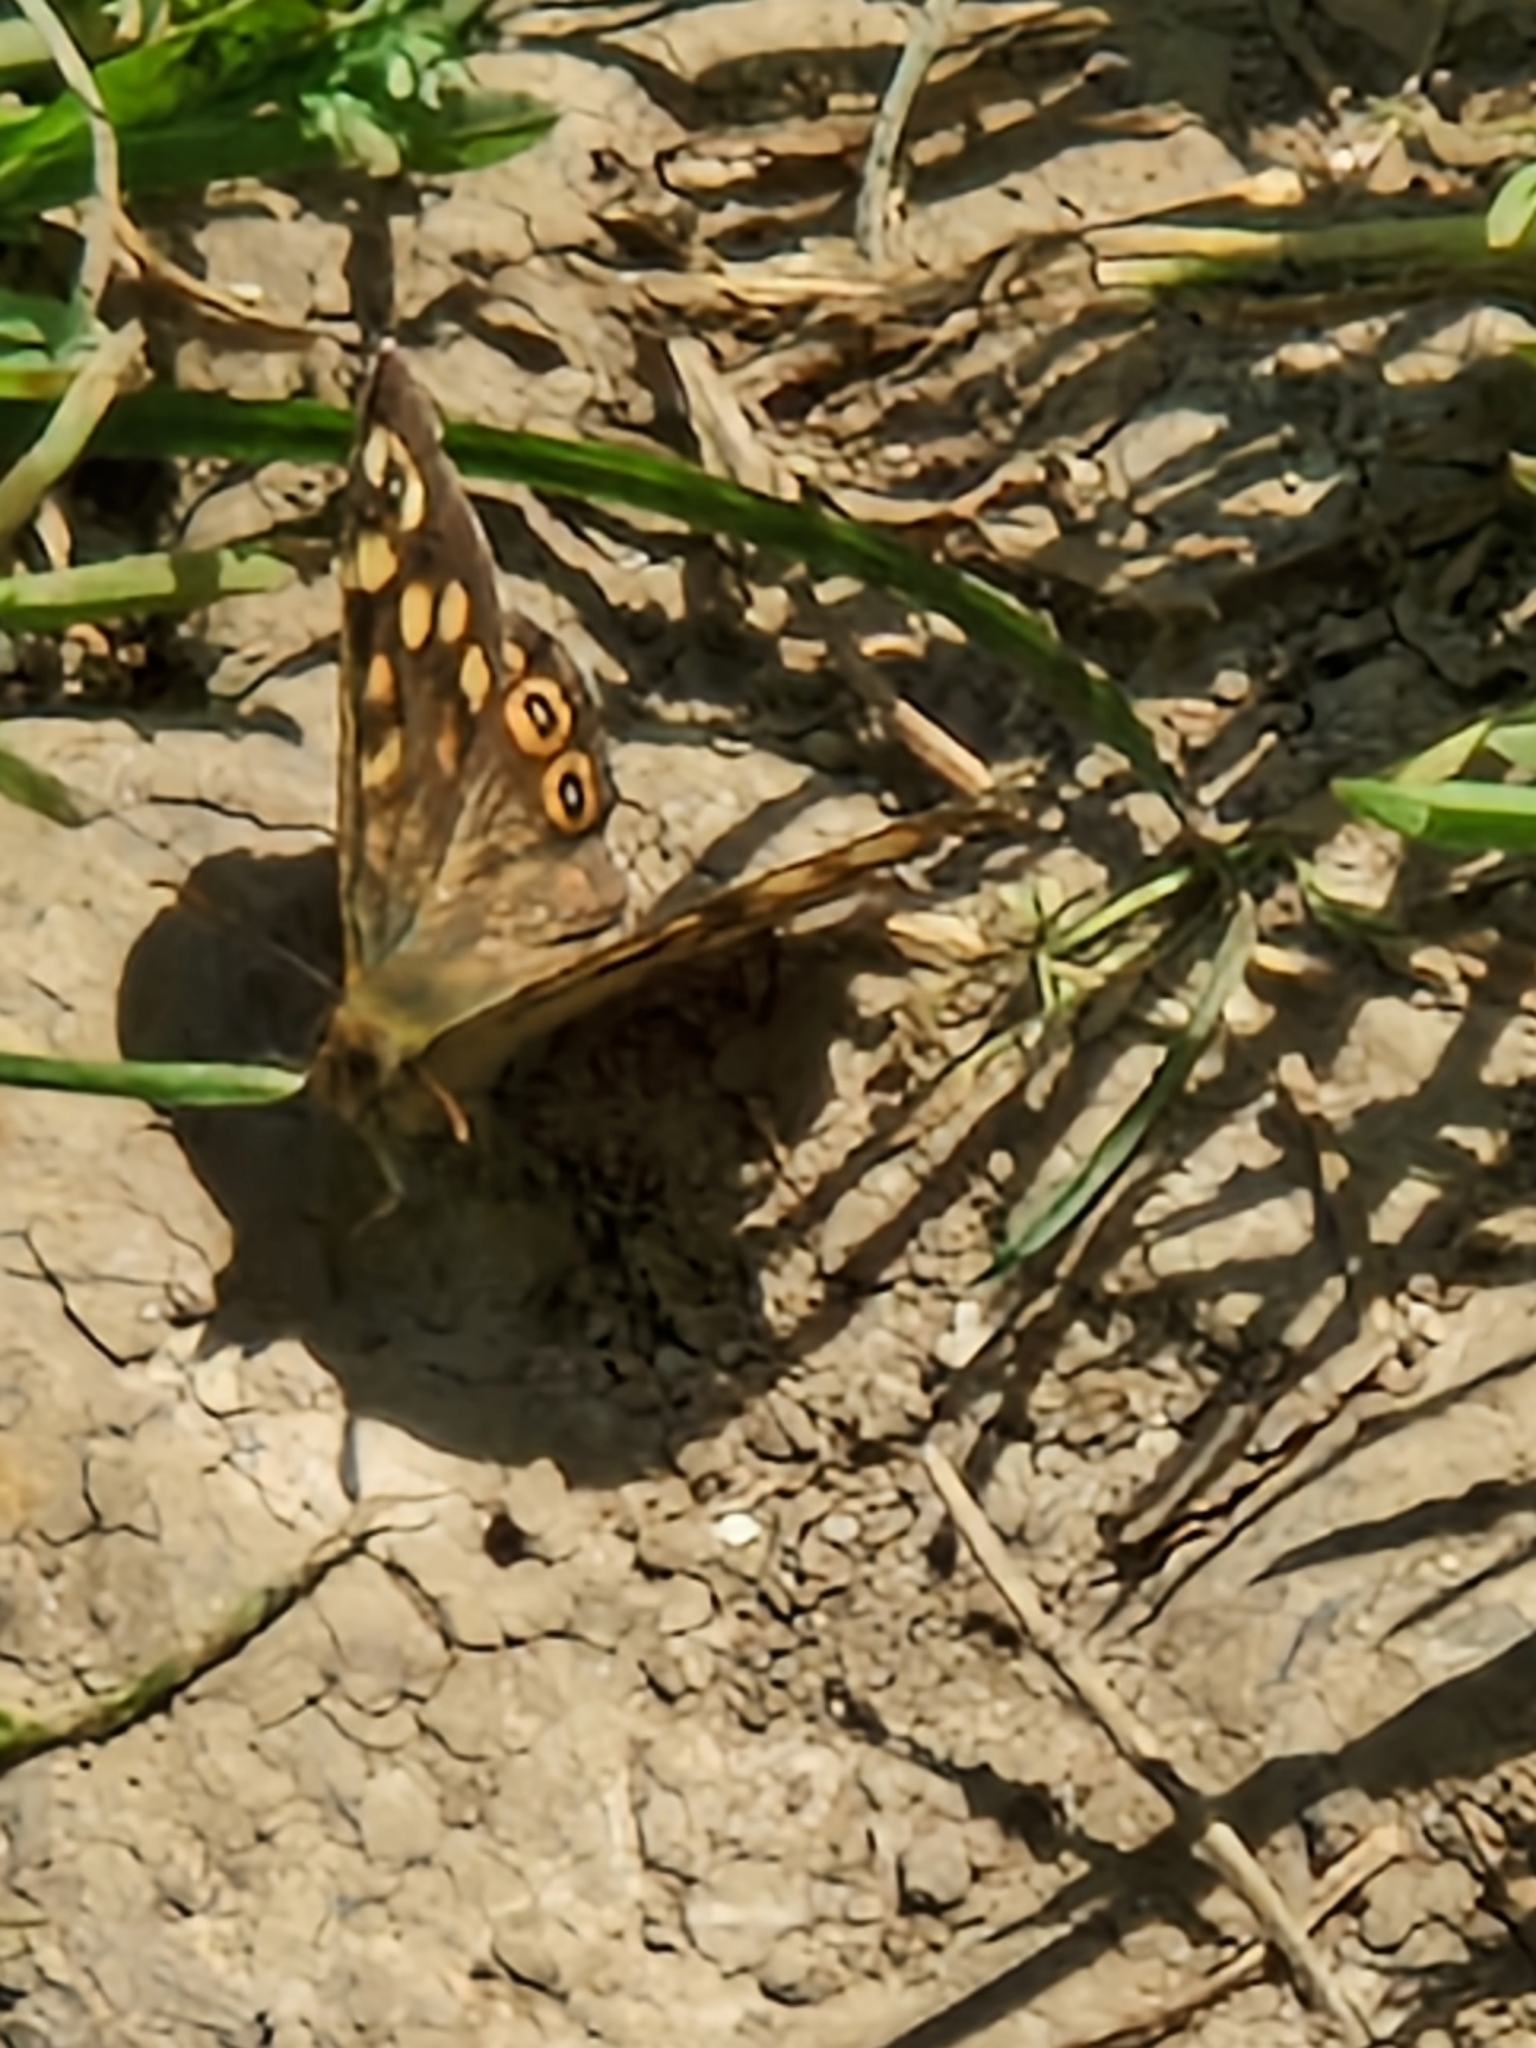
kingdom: Animalia
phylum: Arthropoda
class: Insecta
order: Lepidoptera
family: Nymphalidae
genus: Pararge
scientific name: Pararge aegeria
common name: Speckled wood
